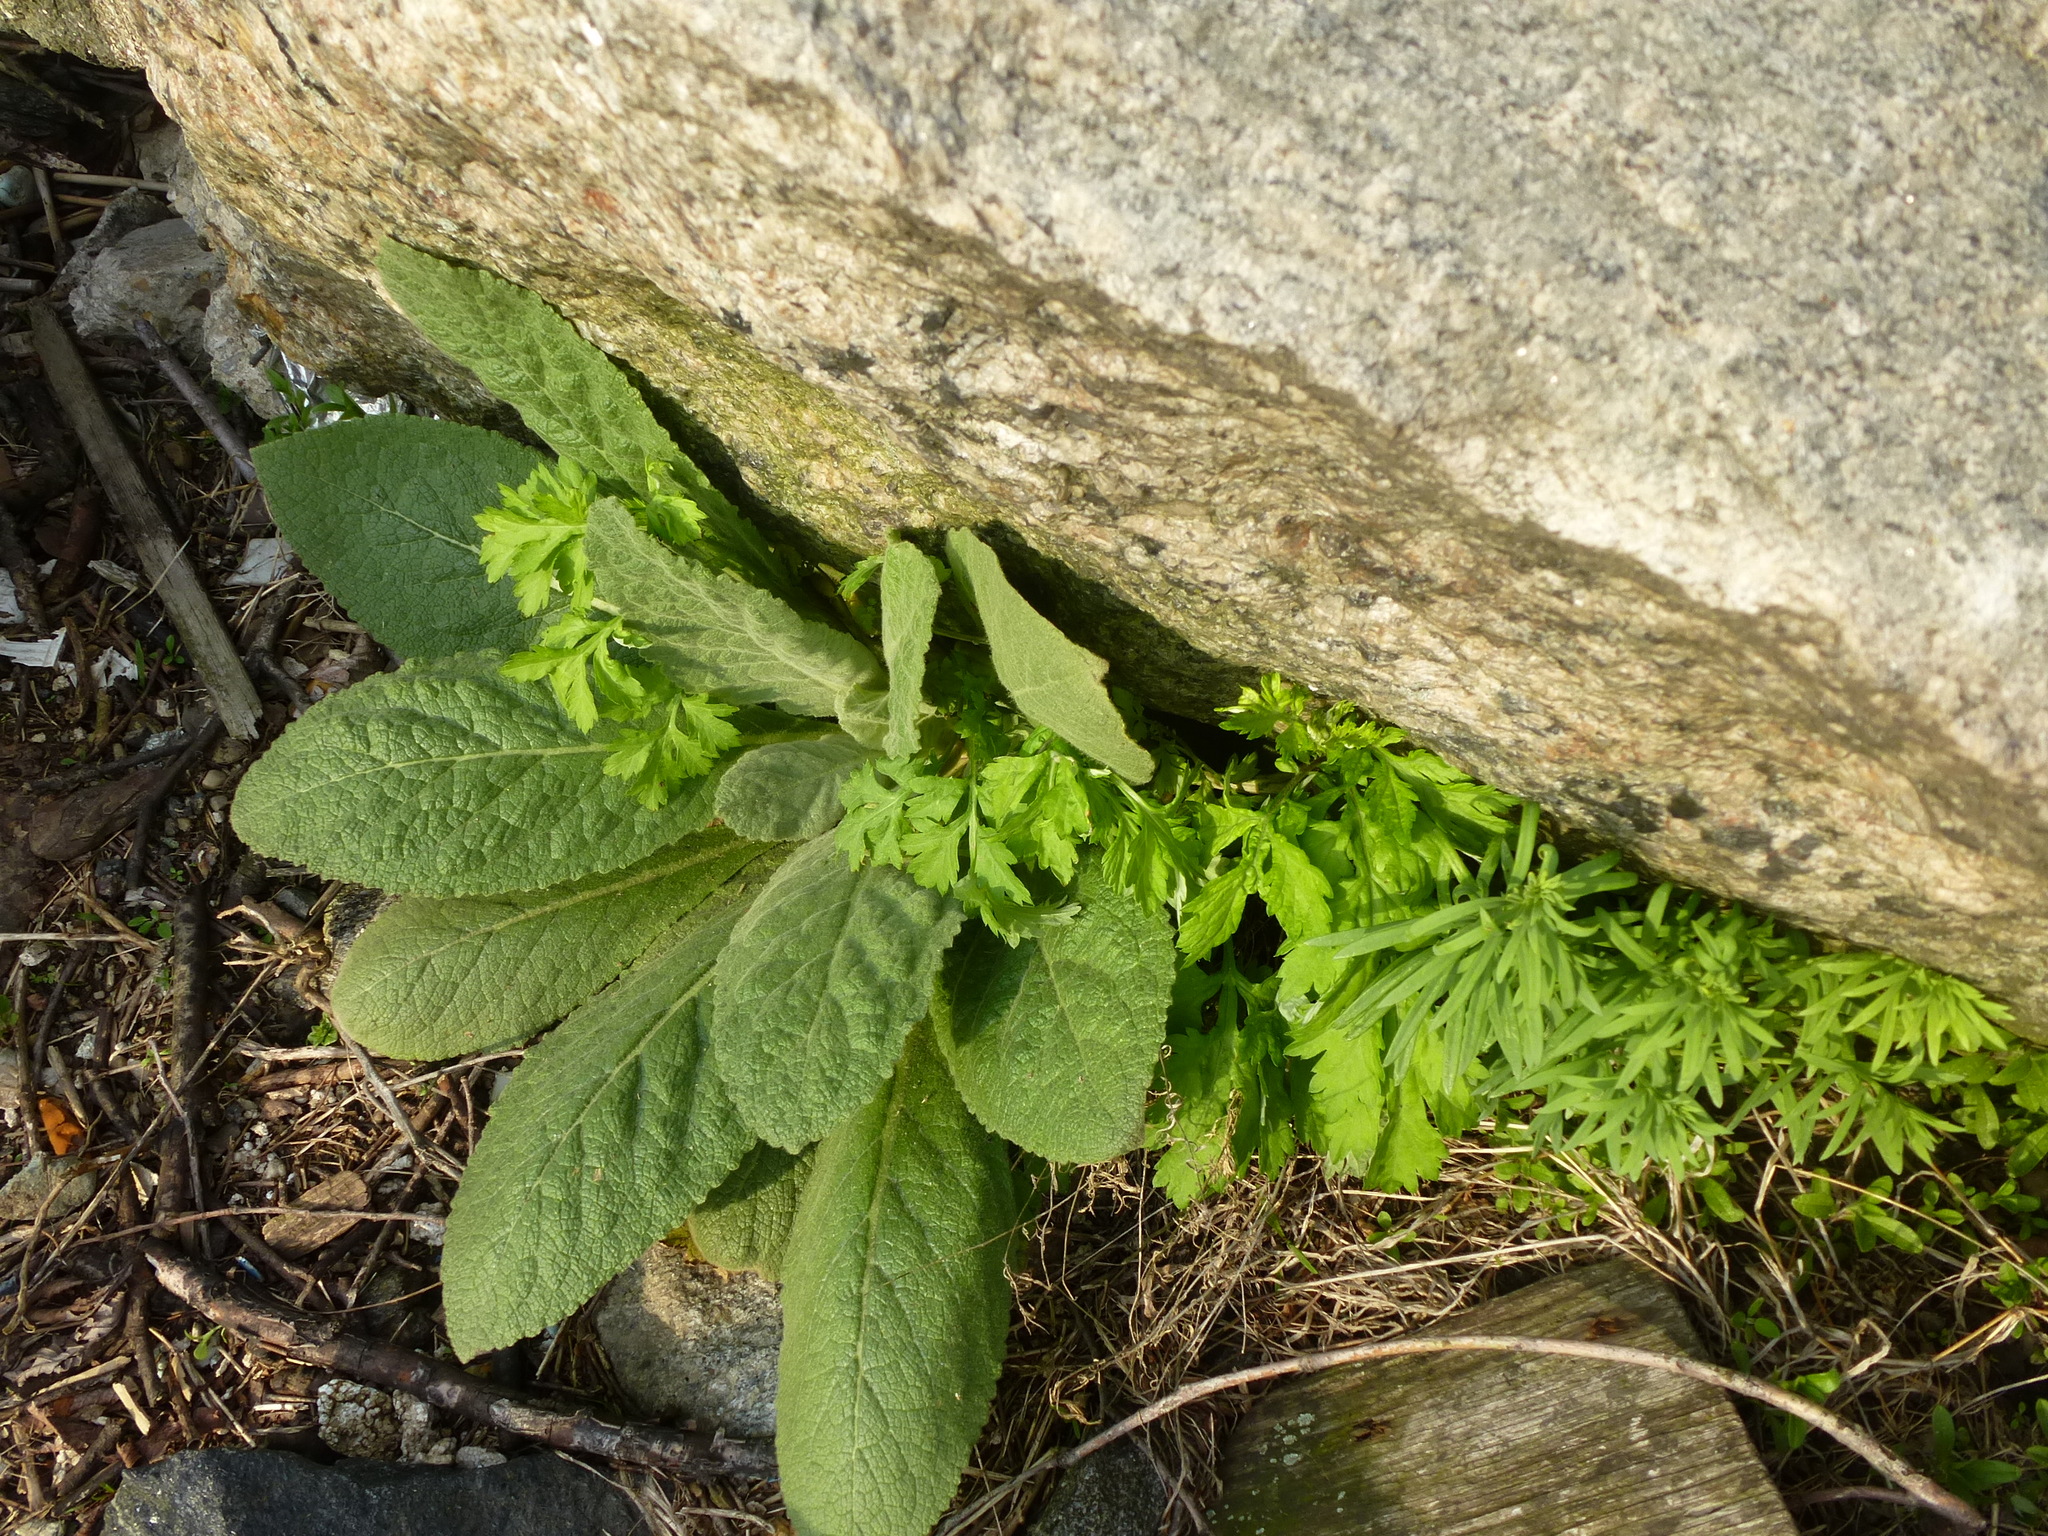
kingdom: Plantae
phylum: Tracheophyta
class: Magnoliopsida
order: Lamiales
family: Scrophulariaceae
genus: Verbascum
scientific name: Verbascum thapsus
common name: Common mullein
